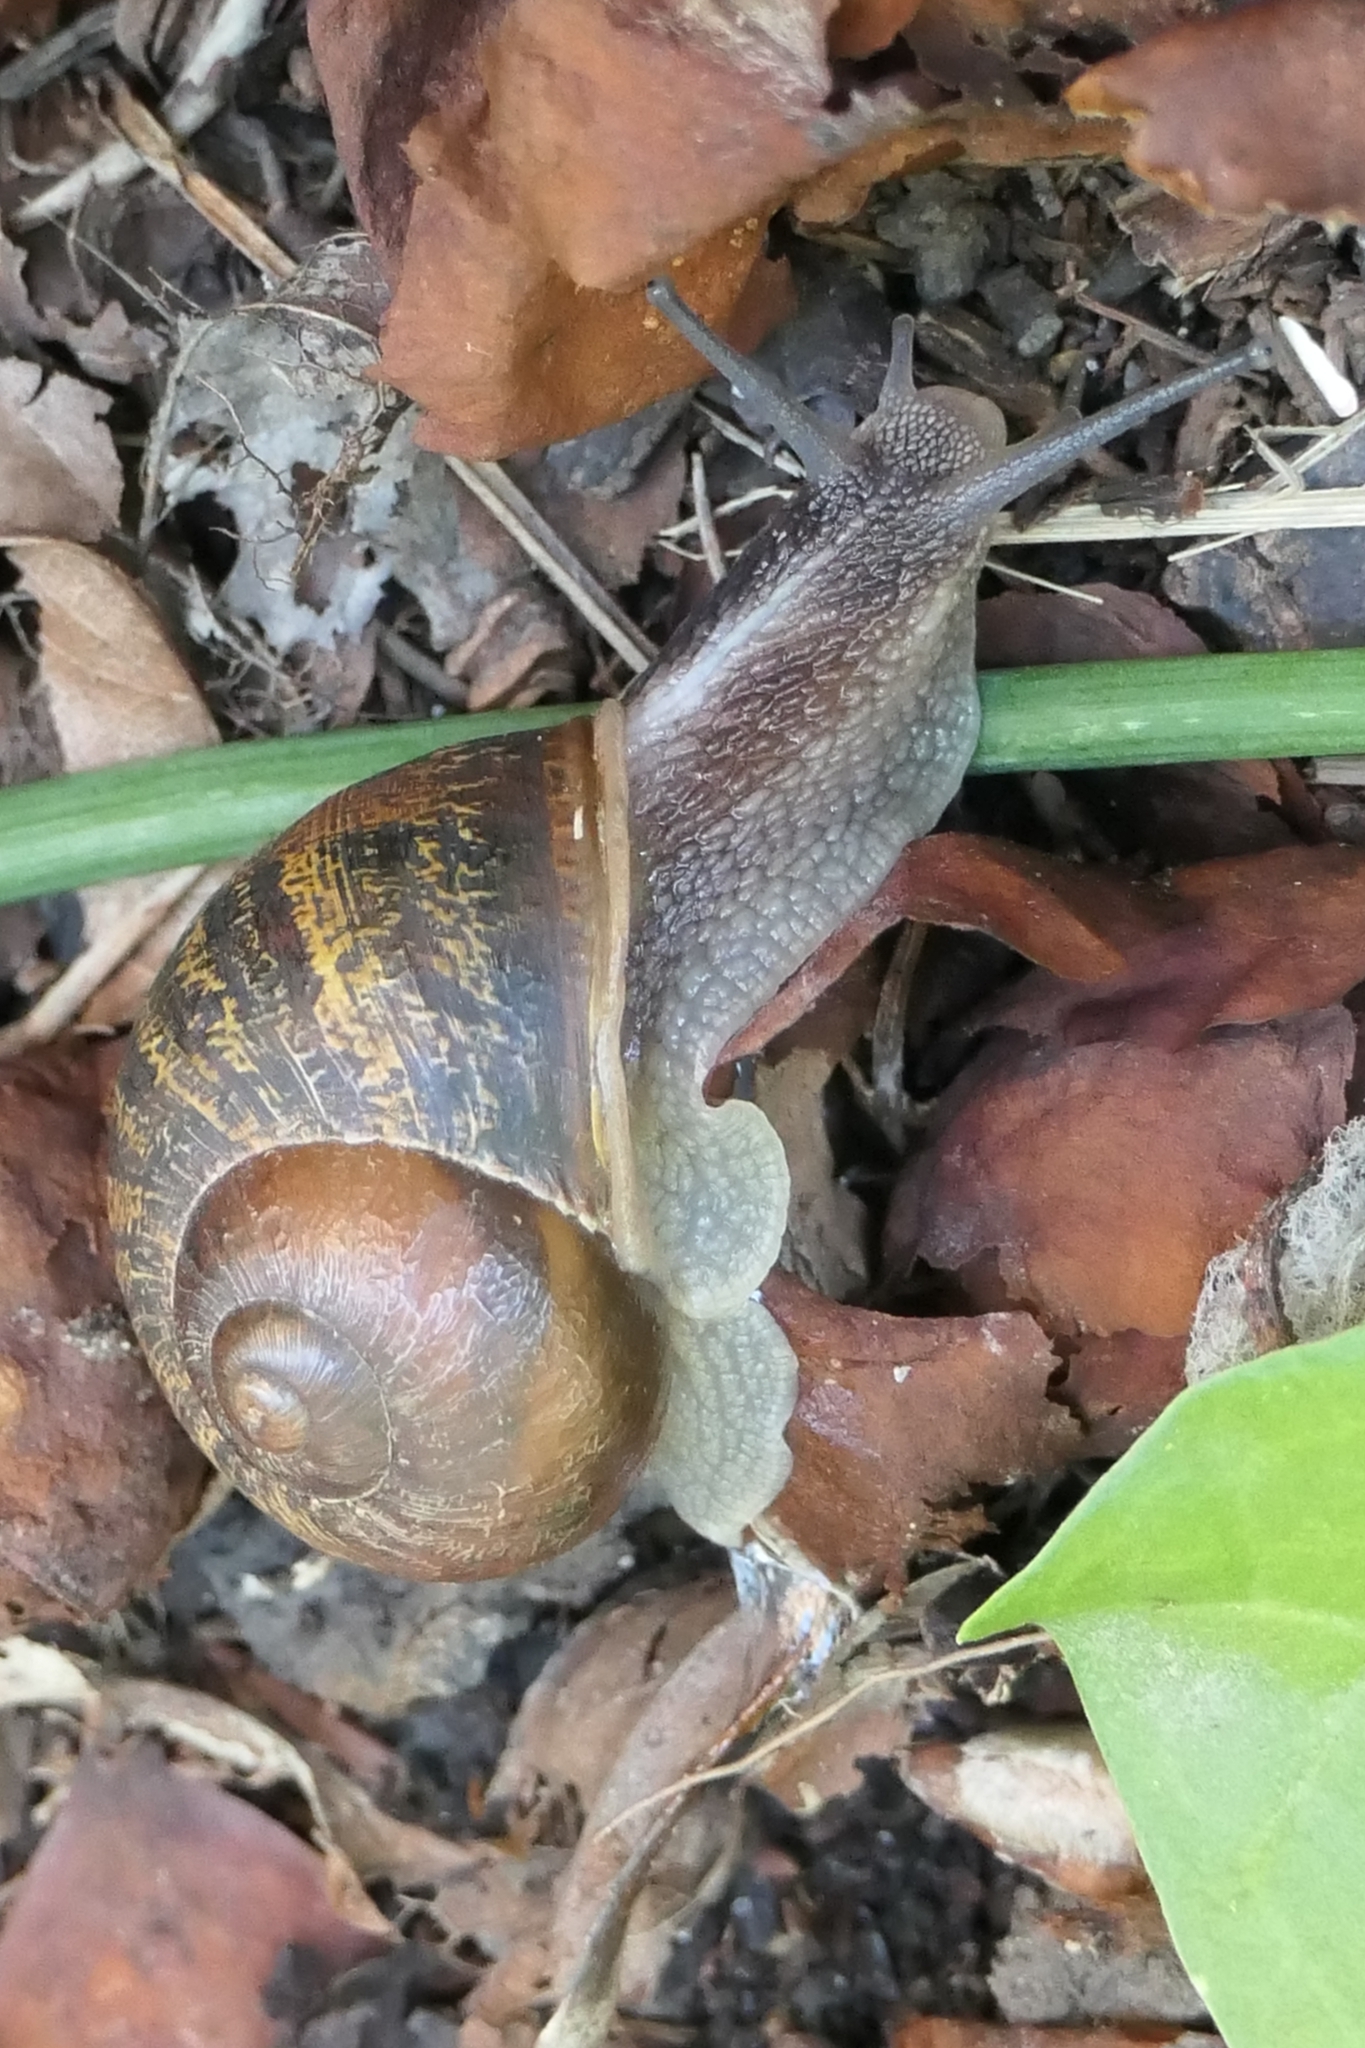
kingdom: Animalia
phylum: Mollusca
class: Gastropoda
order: Stylommatophora
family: Helicidae
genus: Cornu
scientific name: Cornu aspersum
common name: Brown garden snail
